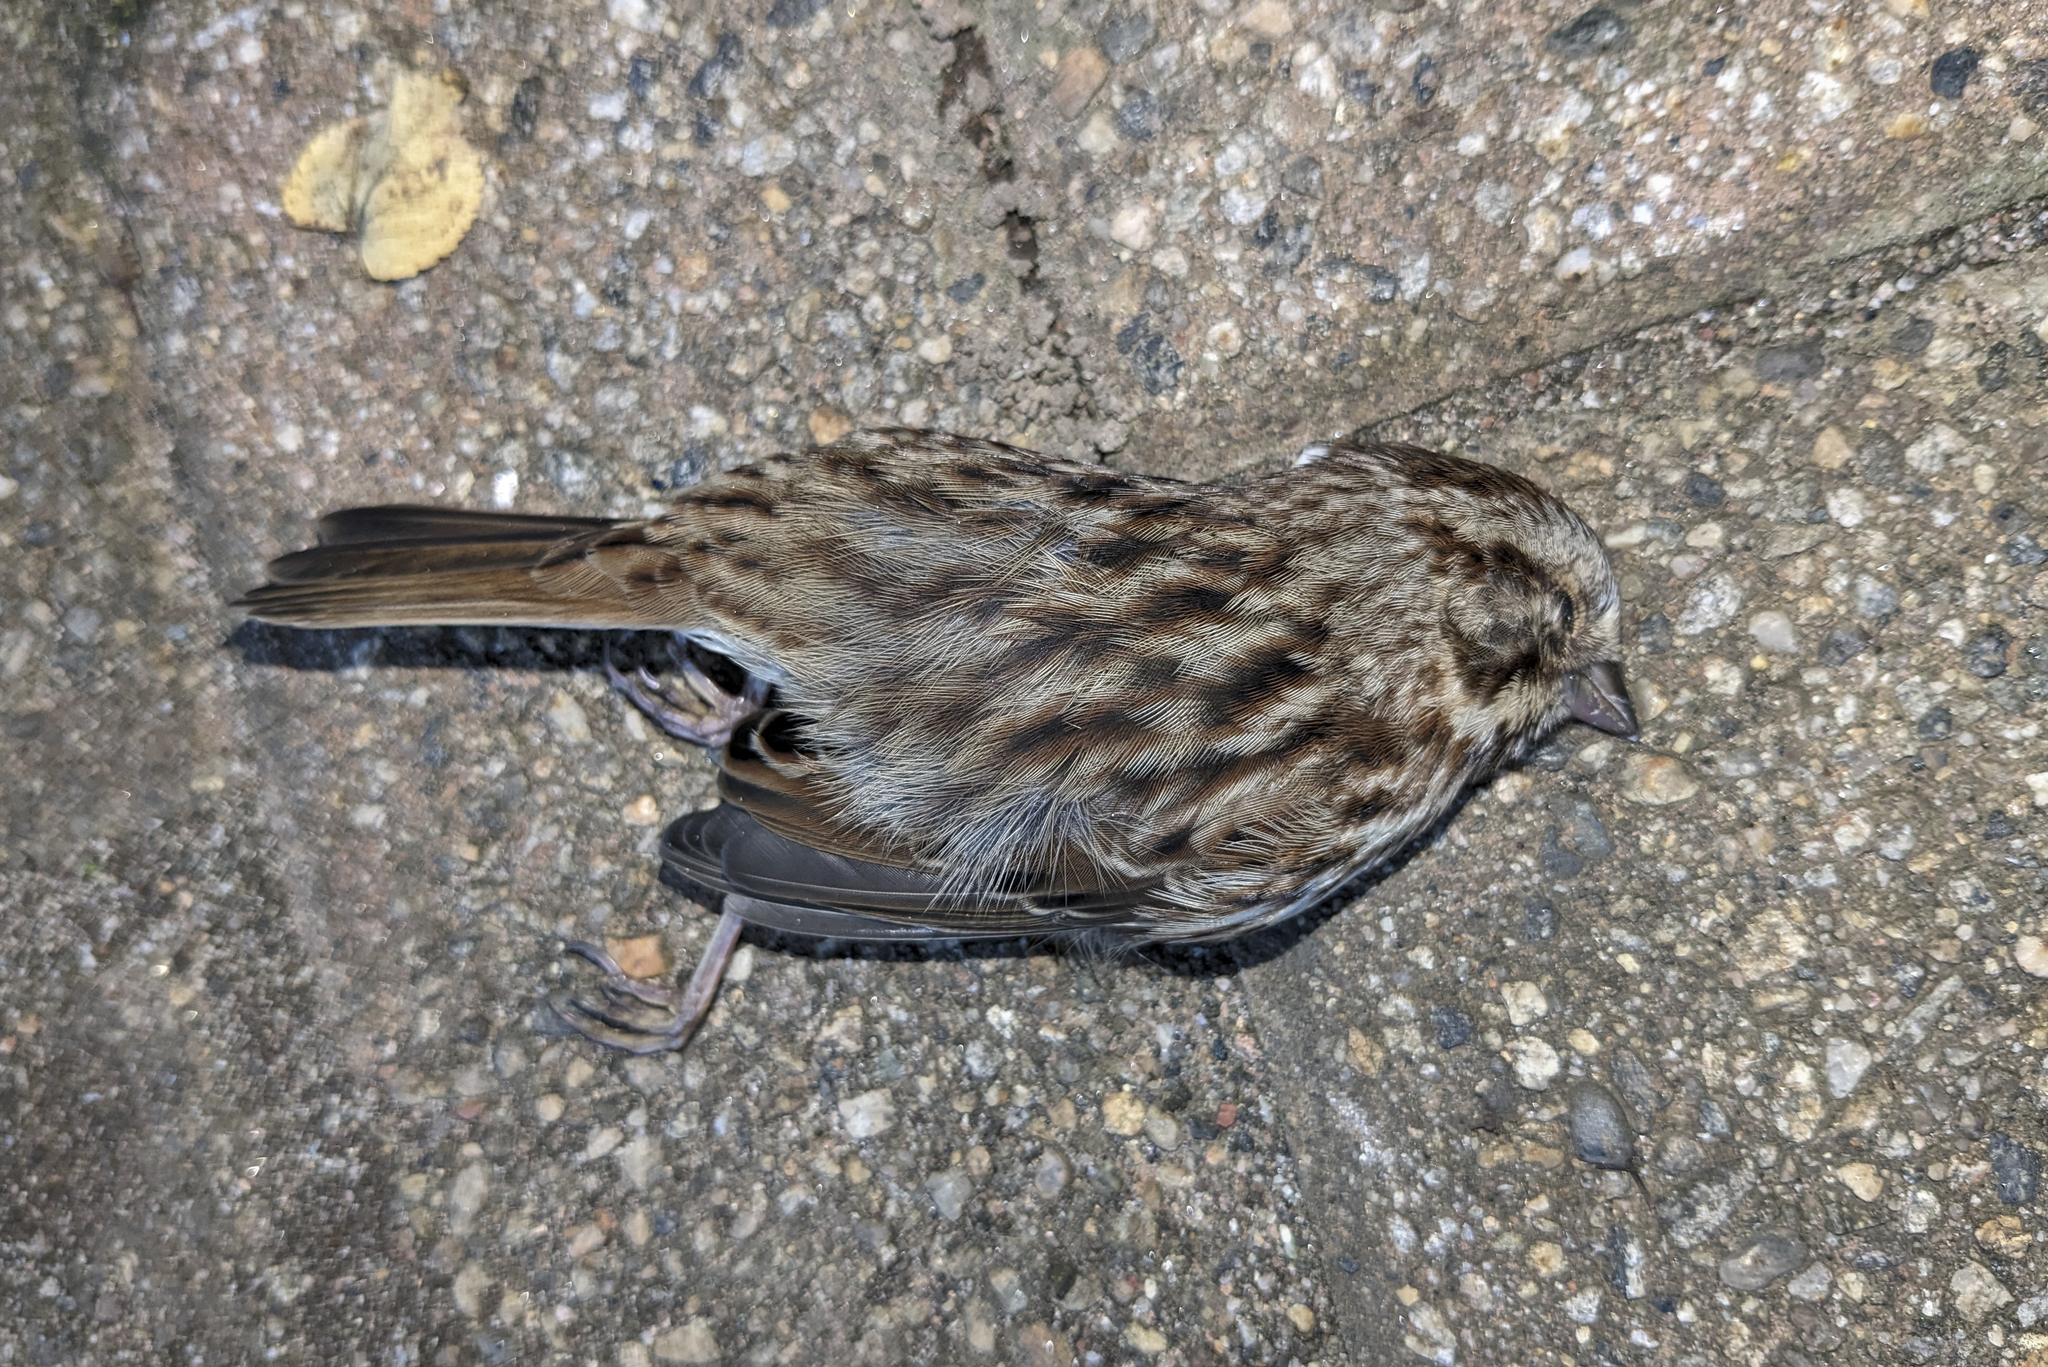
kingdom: Animalia
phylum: Chordata
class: Aves
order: Passeriformes
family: Passerellidae
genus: Melospiza
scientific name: Melospiza melodia
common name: Song sparrow
